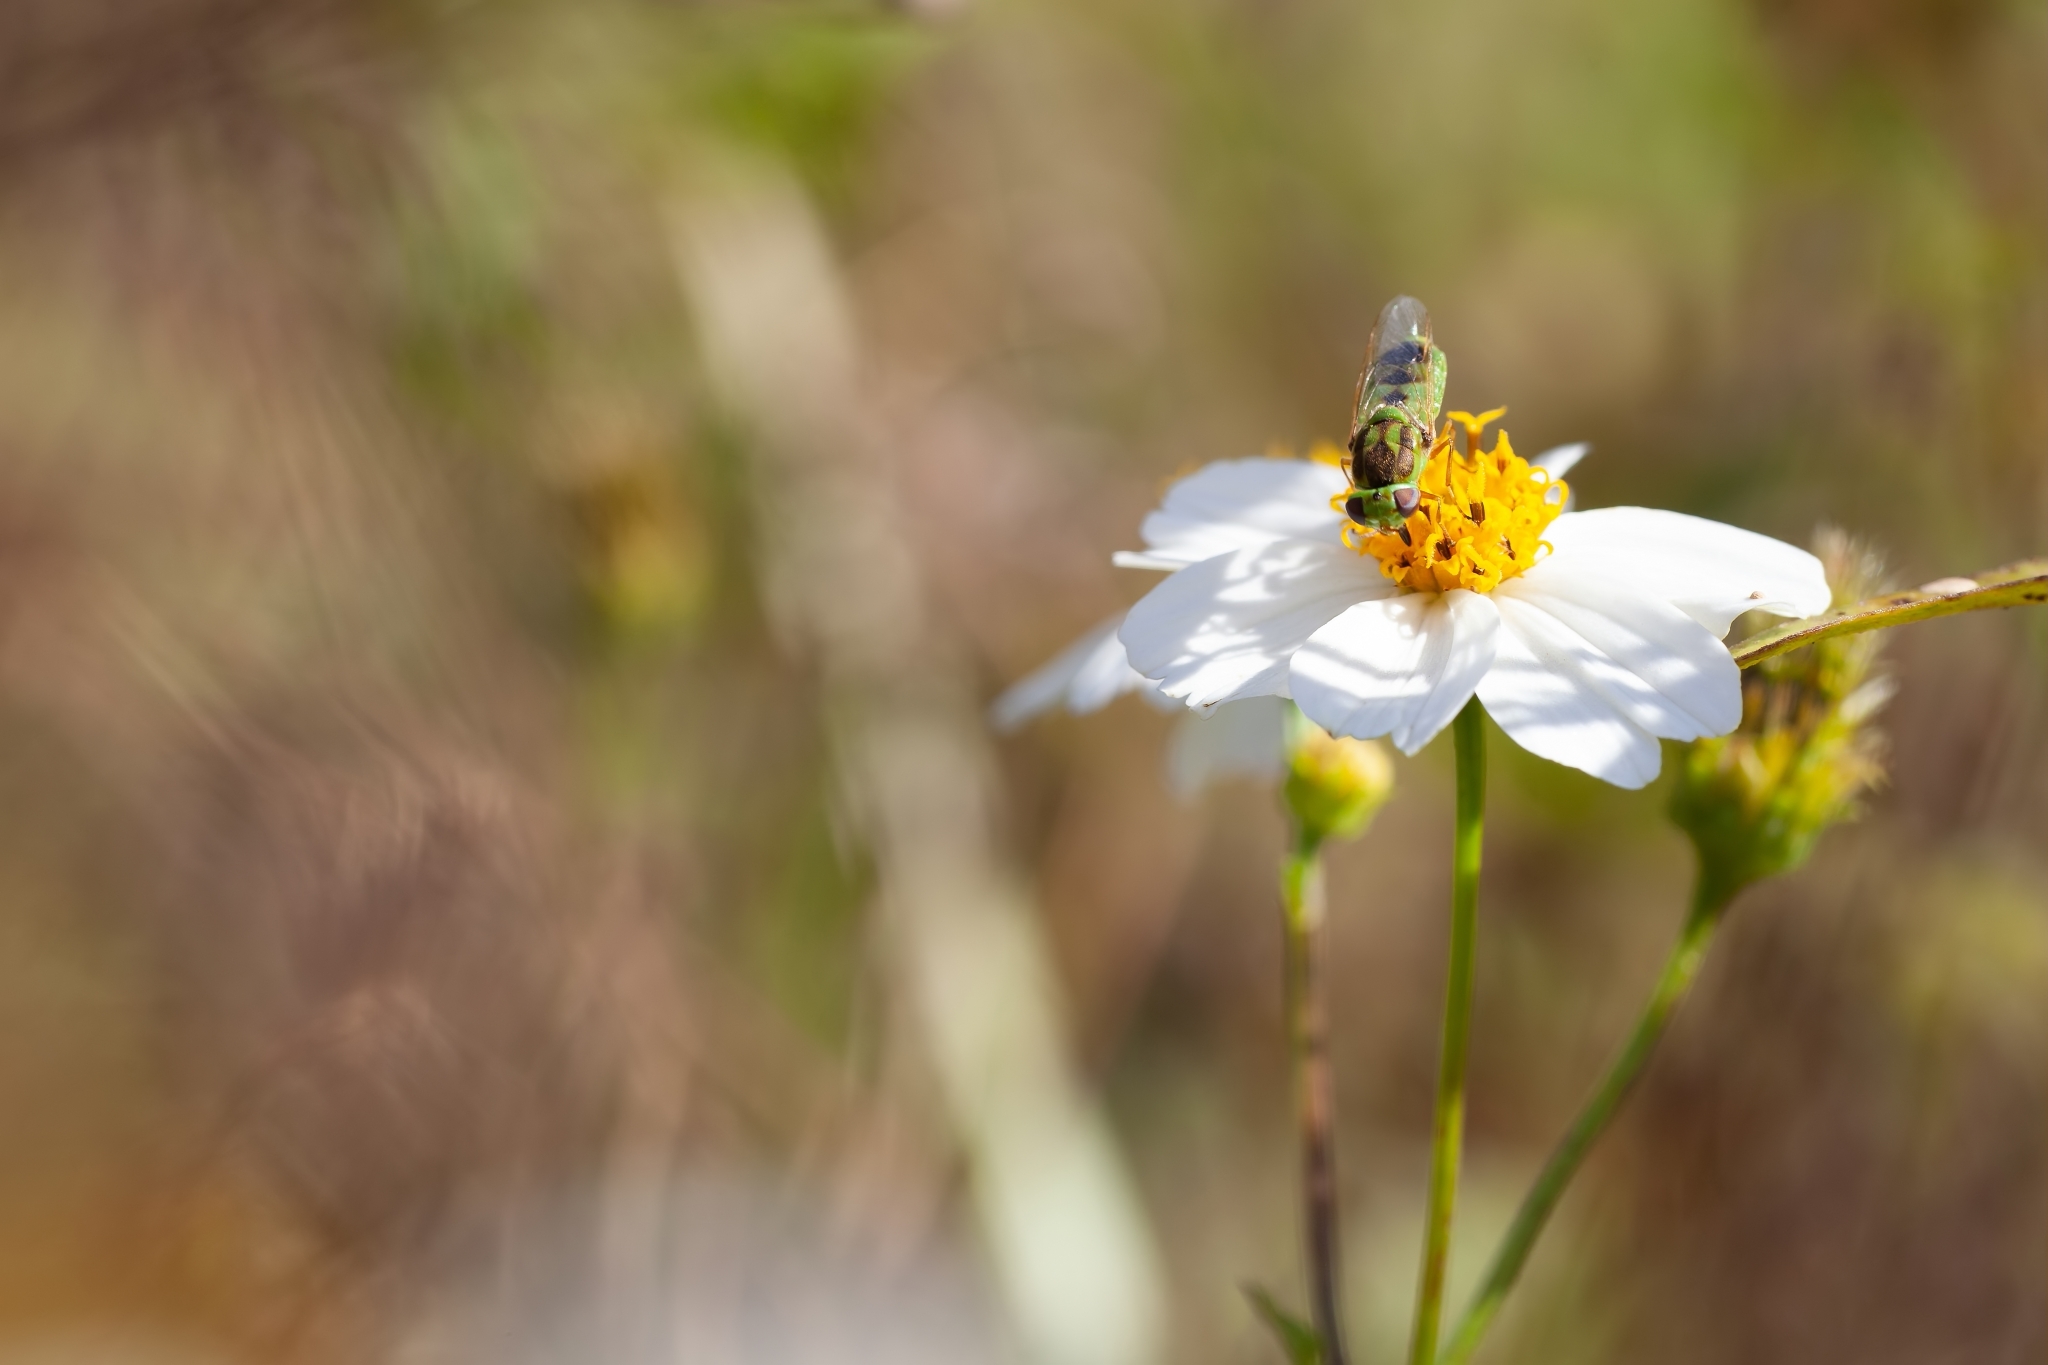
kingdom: Animalia
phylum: Arthropoda
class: Insecta
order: Diptera
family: Stratiomyidae
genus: Hedriodiscus
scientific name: Hedriodiscus trivittatus
